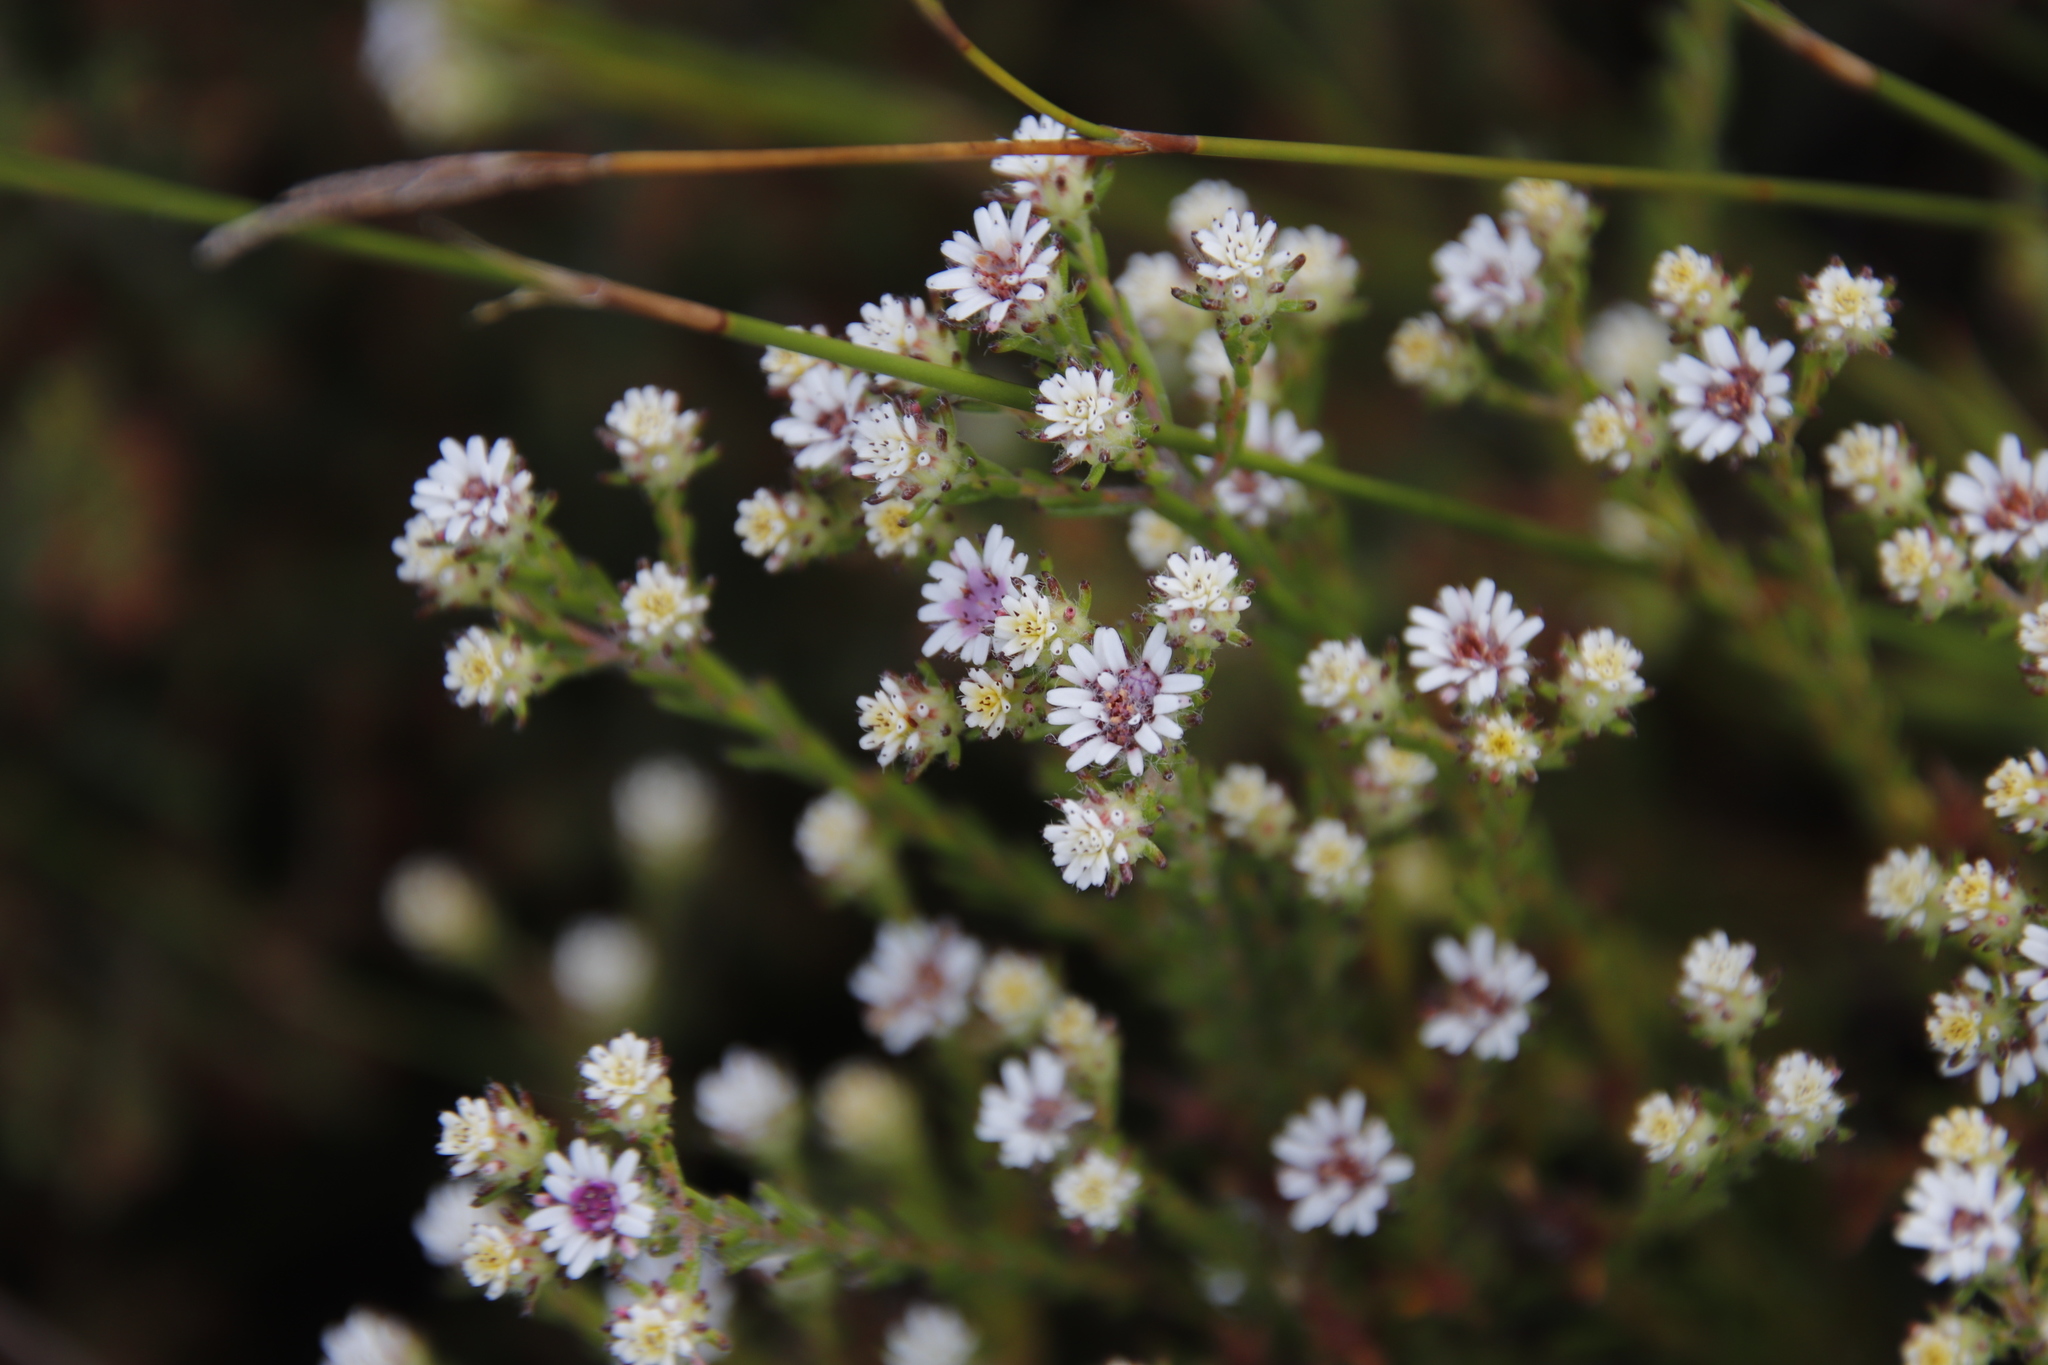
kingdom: Plantae
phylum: Tracheophyta
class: Magnoliopsida
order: Bruniales
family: Bruniaceae
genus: Staavia
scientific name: Staavia radiata
